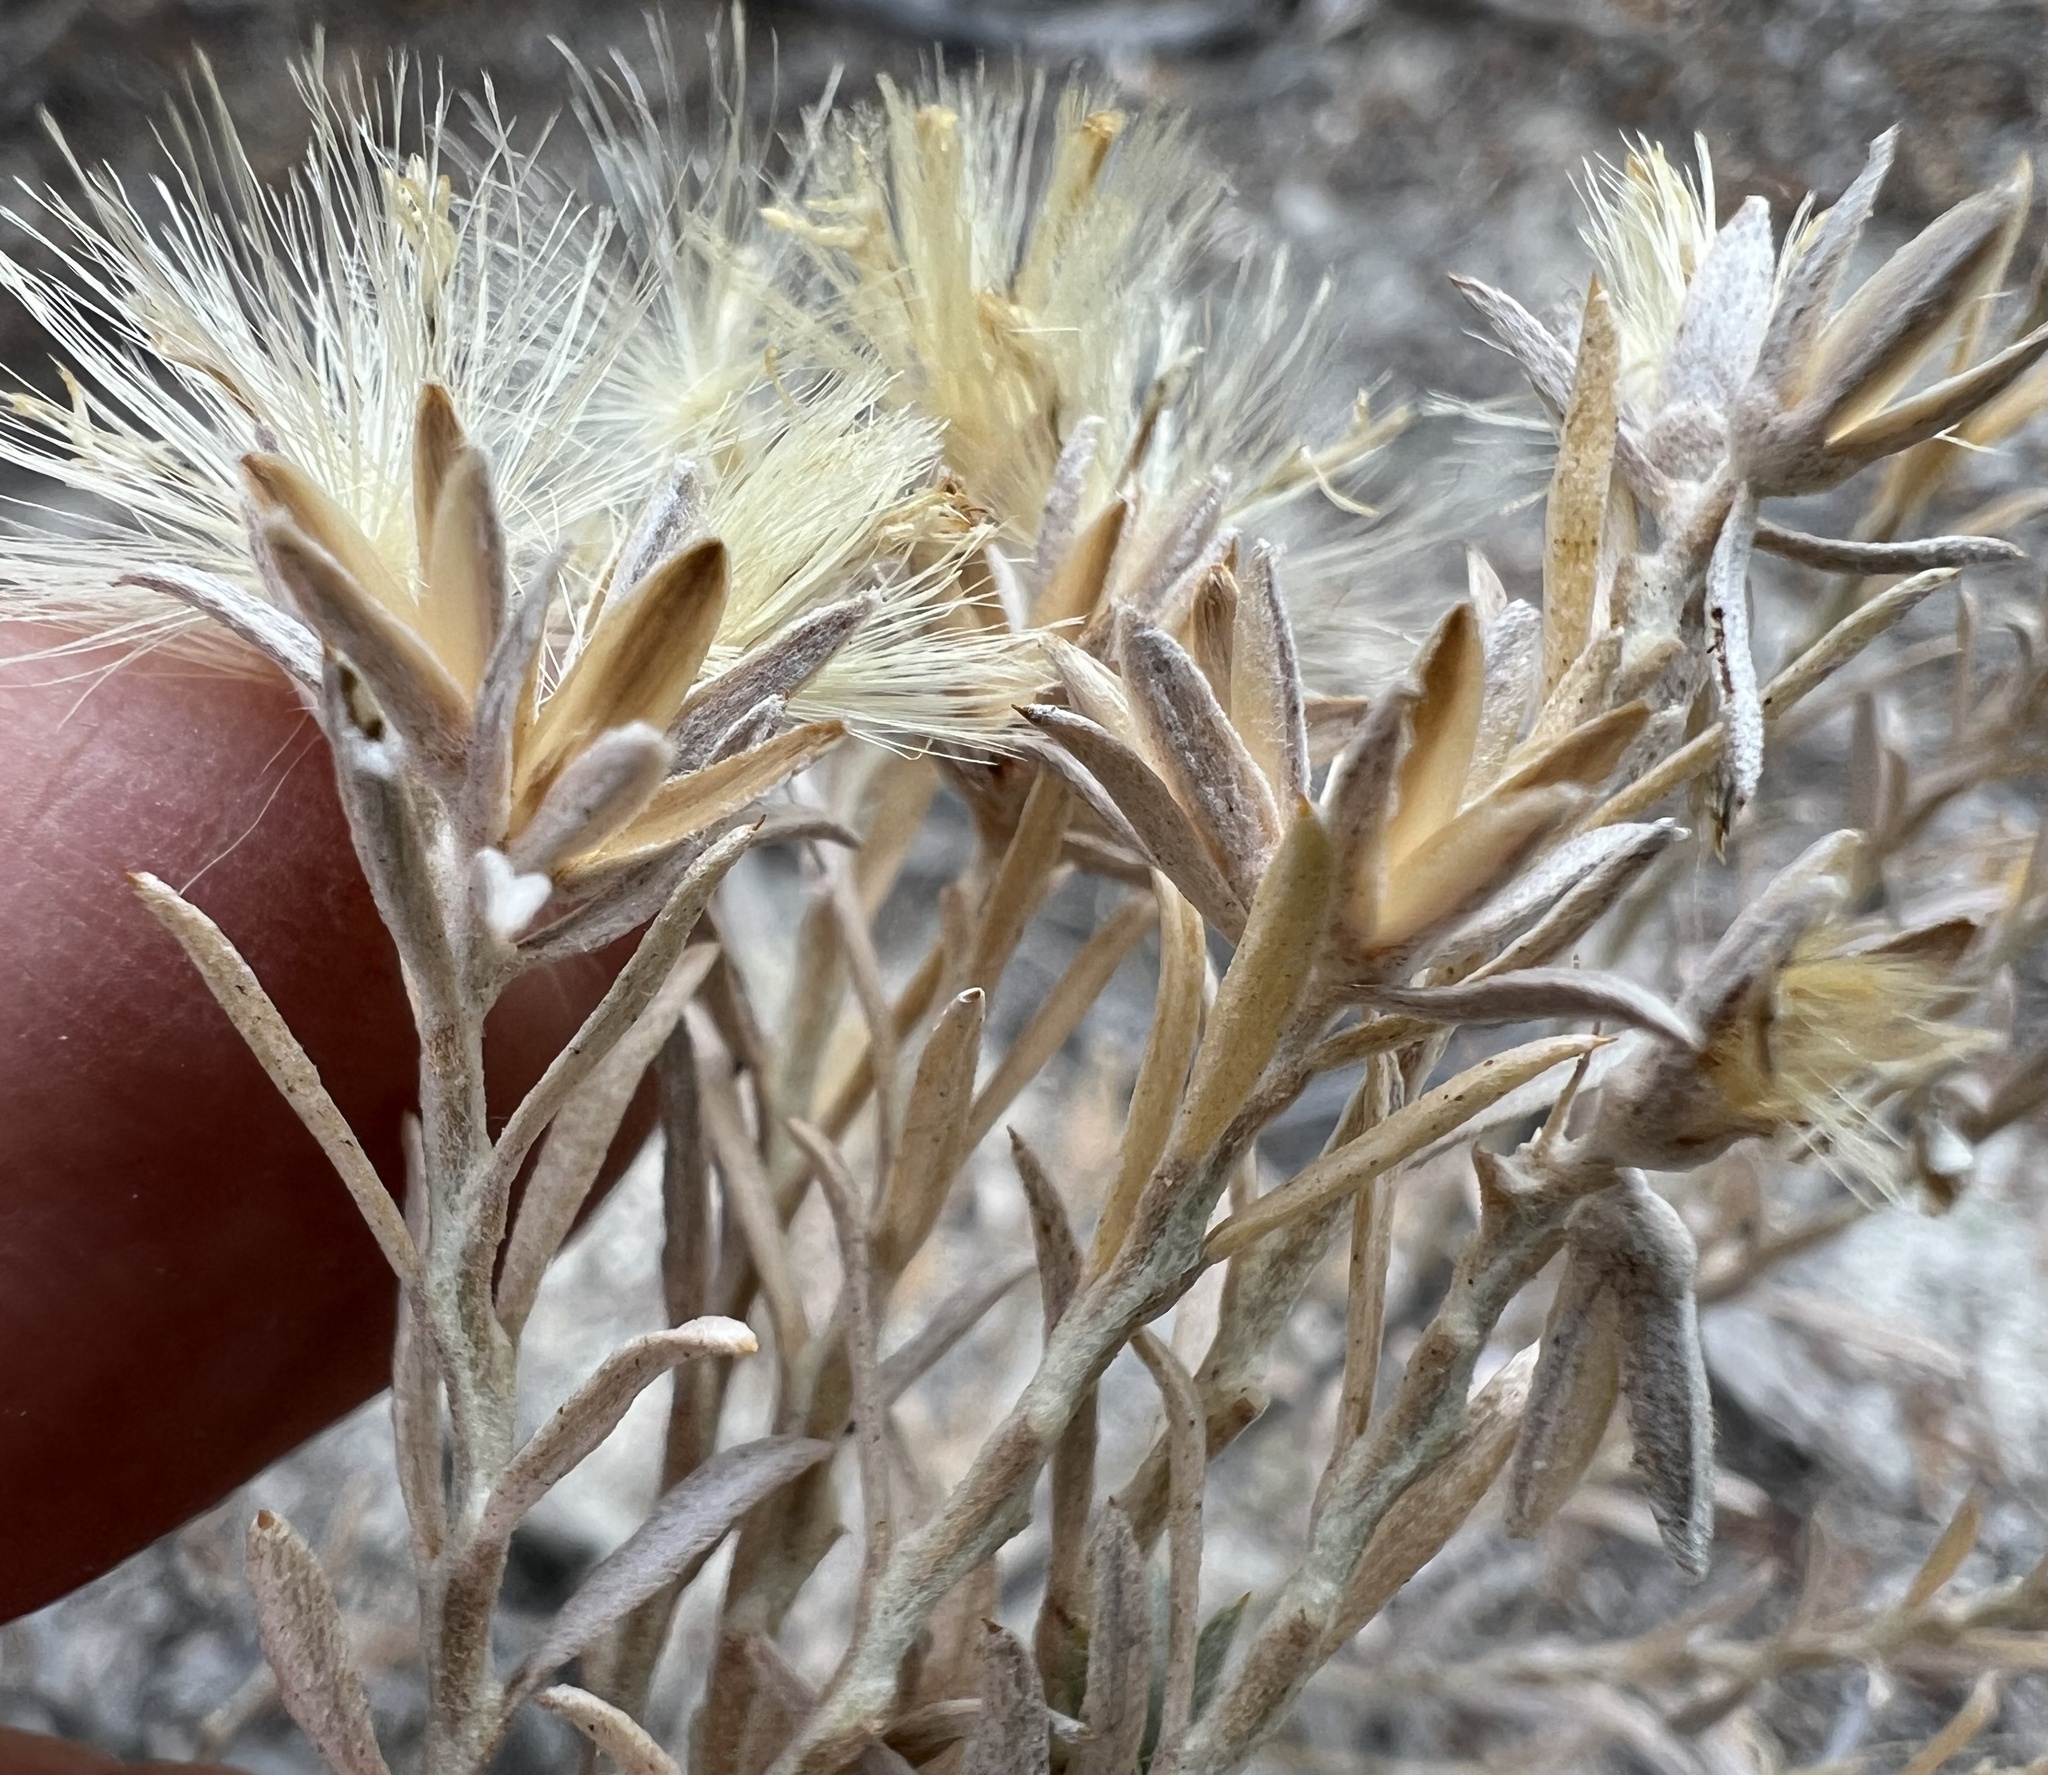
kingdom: Plantae
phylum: Tracheophyta
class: Magnoliopsida
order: Asterales
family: Asteraceae
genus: Tetradymia
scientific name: Tetradymia canescens
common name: Spineless horsebrush
